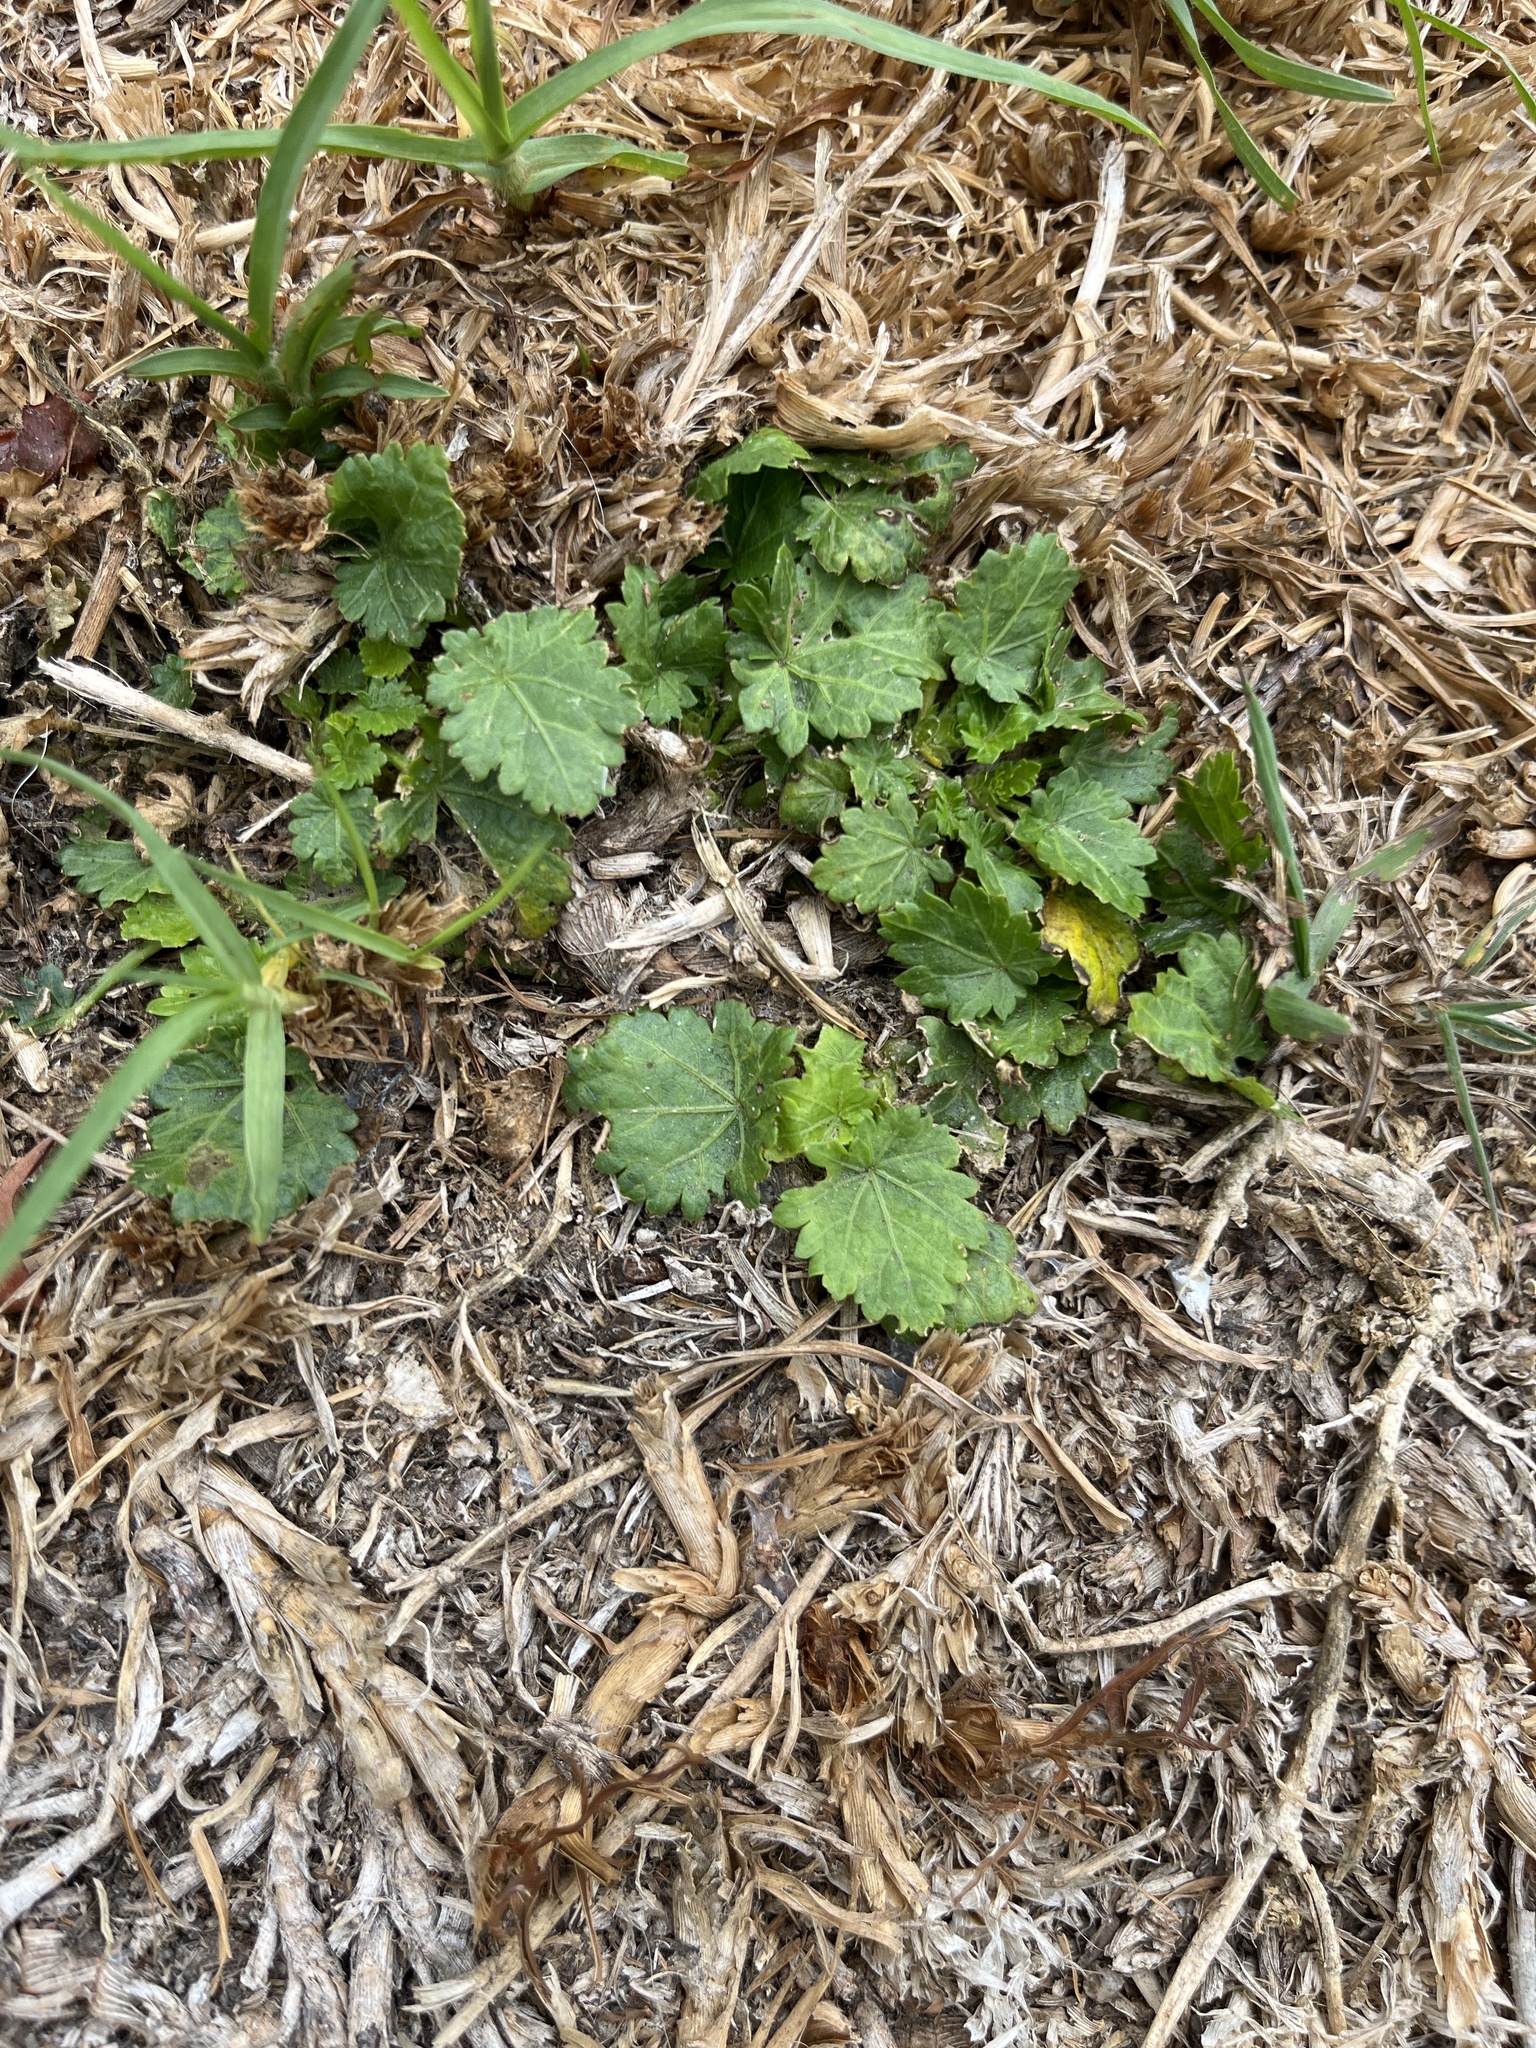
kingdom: Plantae
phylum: Tracheophyta
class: Magnoliopsida
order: Malvales
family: Malvaceae
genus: Modiola
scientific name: Modiola caroliniana
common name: Carolina bristlemallow
